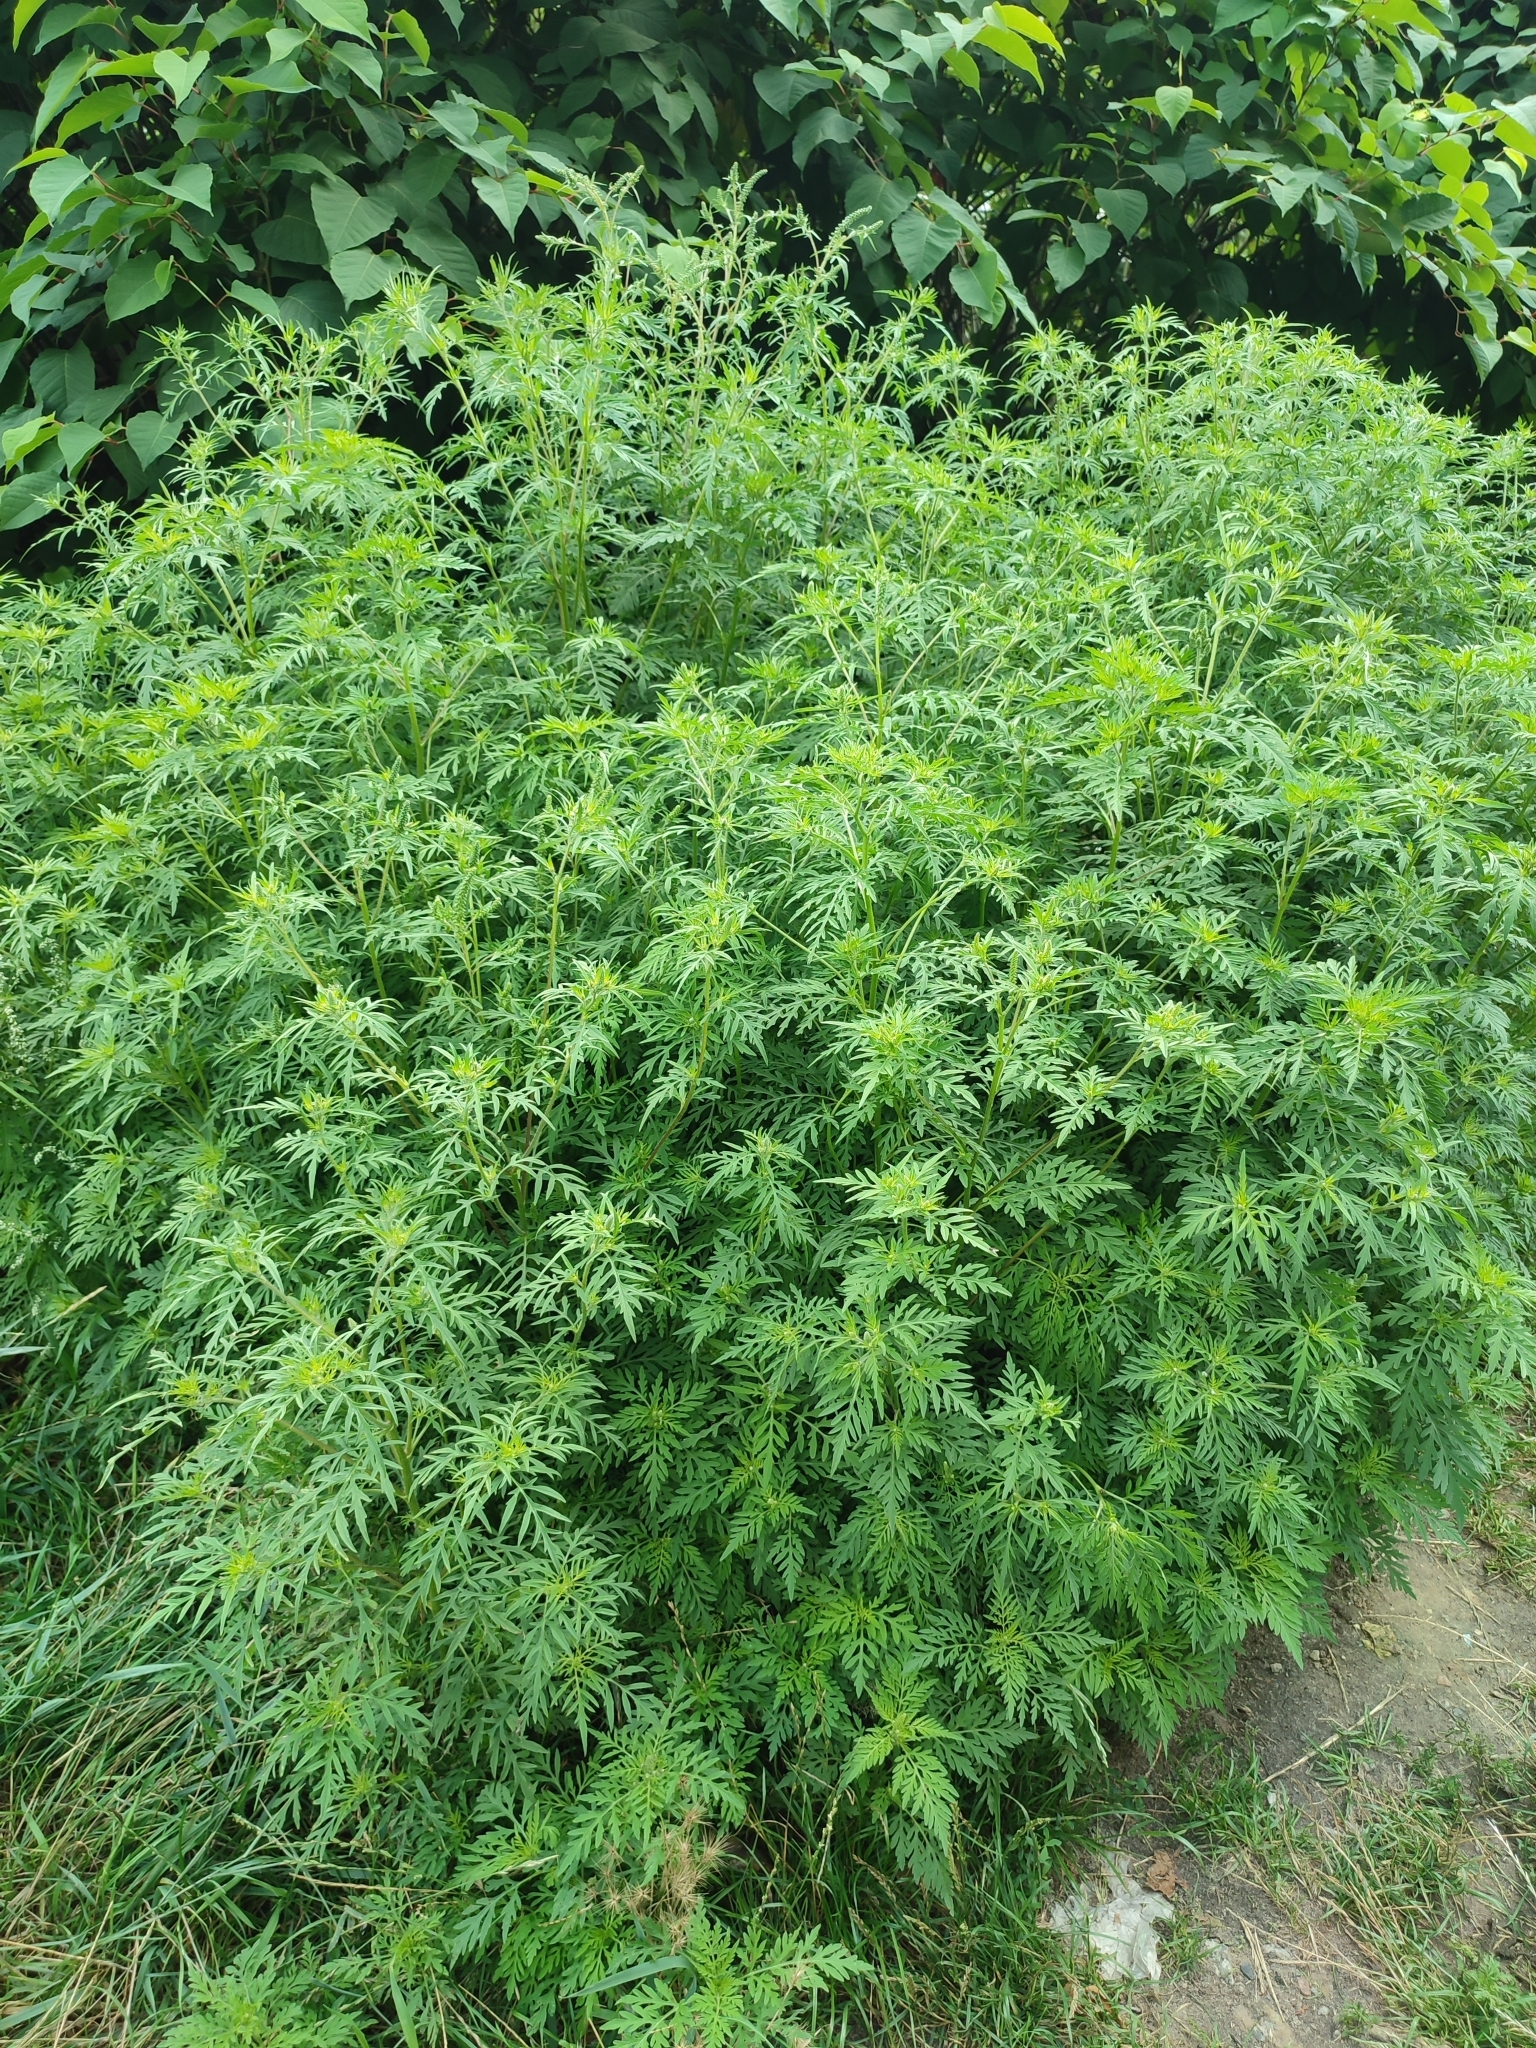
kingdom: Plantae
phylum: Tracheophyta
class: Magnoliopsida
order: Asterales
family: Asteraceae
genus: Ambrosia
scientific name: Ambrosia artemisiifolia
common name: Annual ragweed
